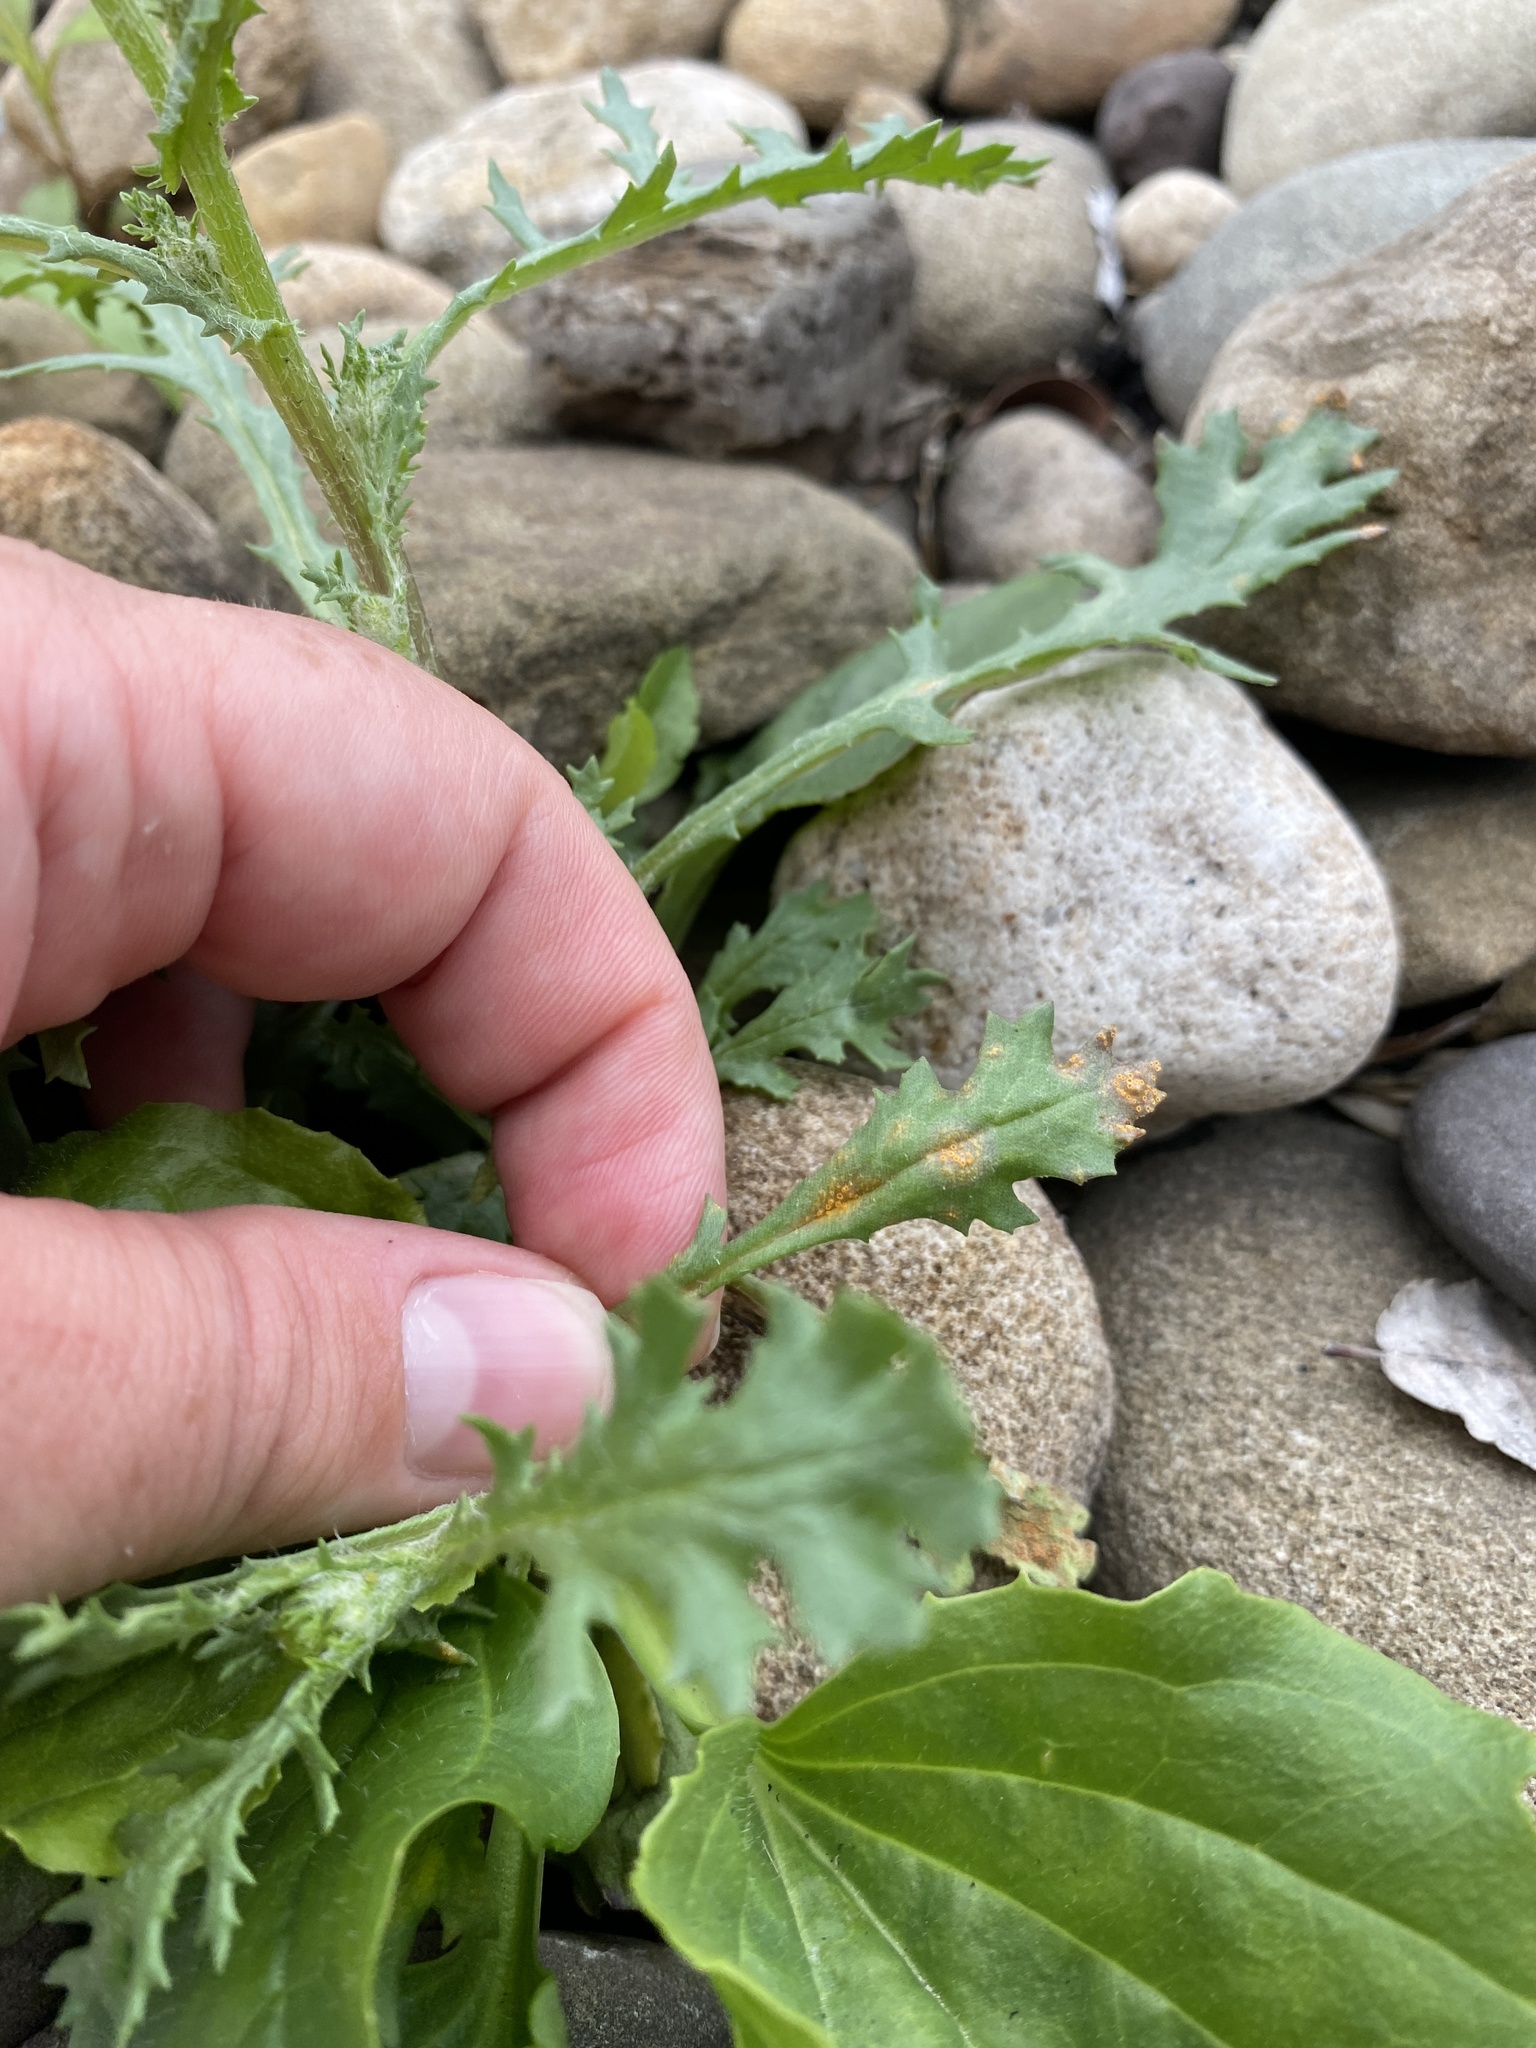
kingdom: Fungi
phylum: Basidiomycota
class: Pucciniomycetes
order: Pucciniales
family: Pucciniaceae
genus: Puccinia
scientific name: Puccinia lagenophorae
